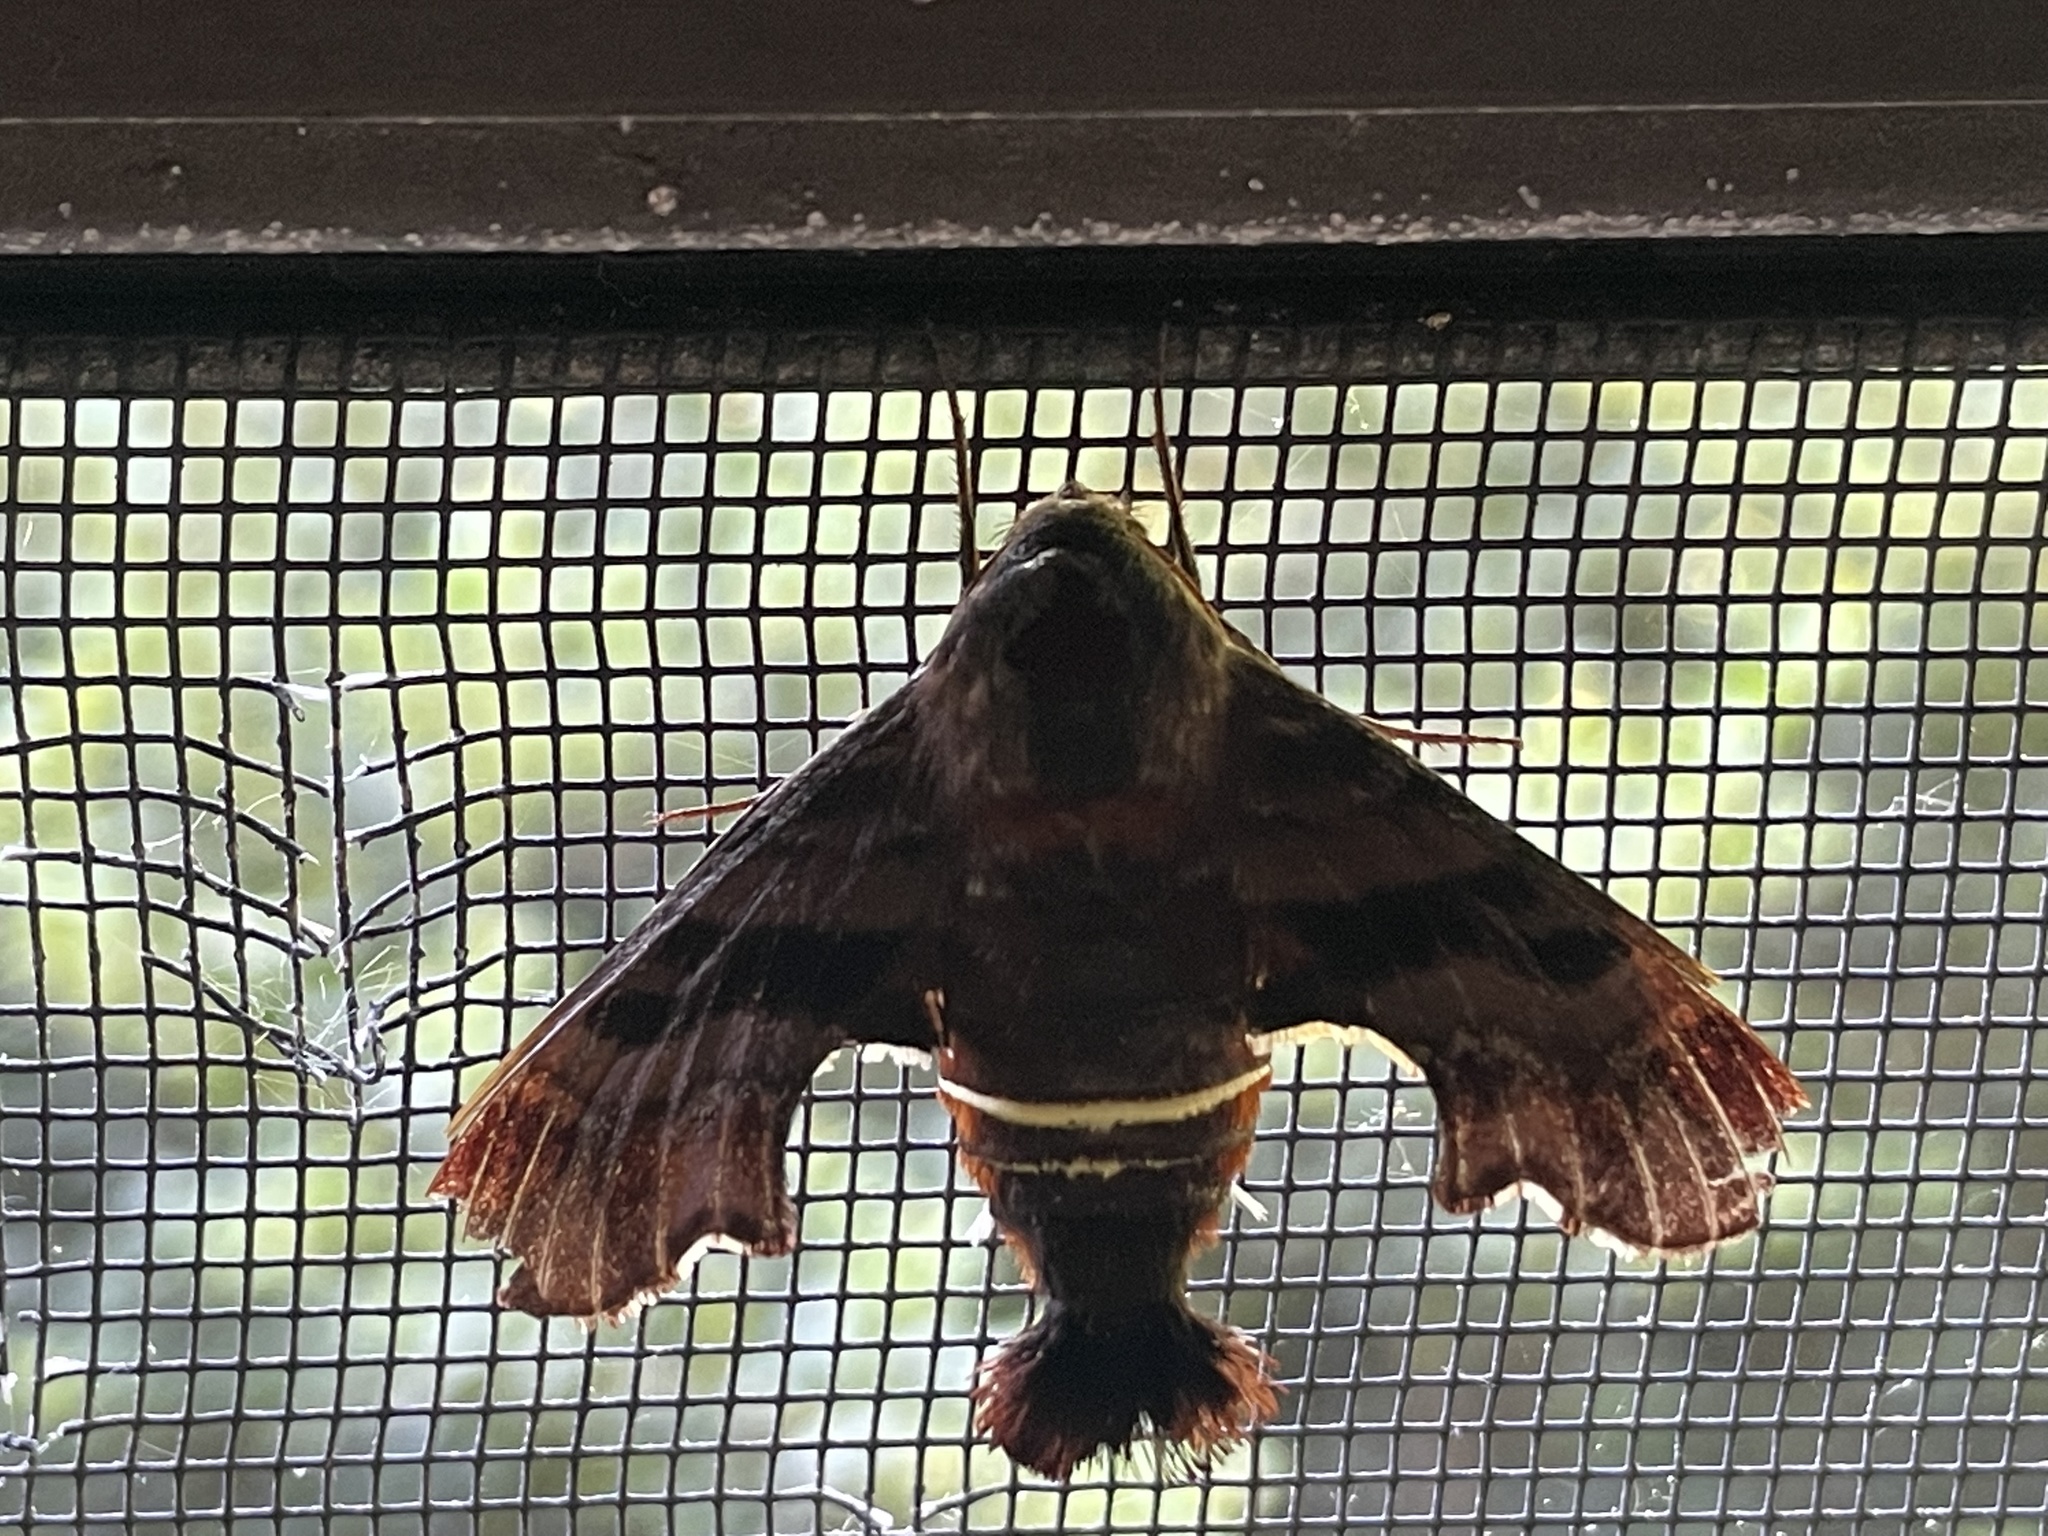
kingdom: Animalia
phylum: Arthropoda
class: Insecta
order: Lepidoptera
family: Sphingidae
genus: Amphion
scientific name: Amphion floridensis
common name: Nessus sphinx
